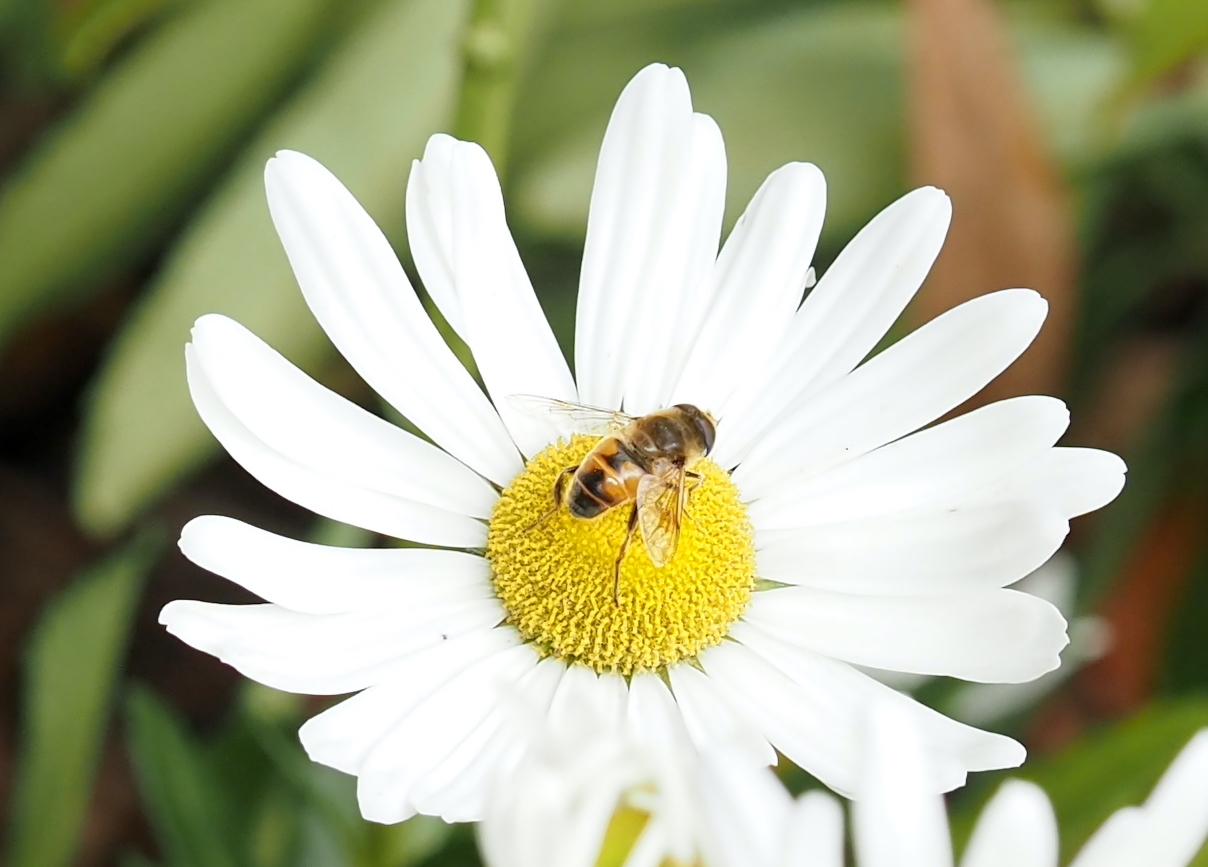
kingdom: Animalia
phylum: Arthropoda
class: Insecta
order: Diptera
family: Syrphidae
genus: Eristalis
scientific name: Eristalis tenax
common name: Drone fly
